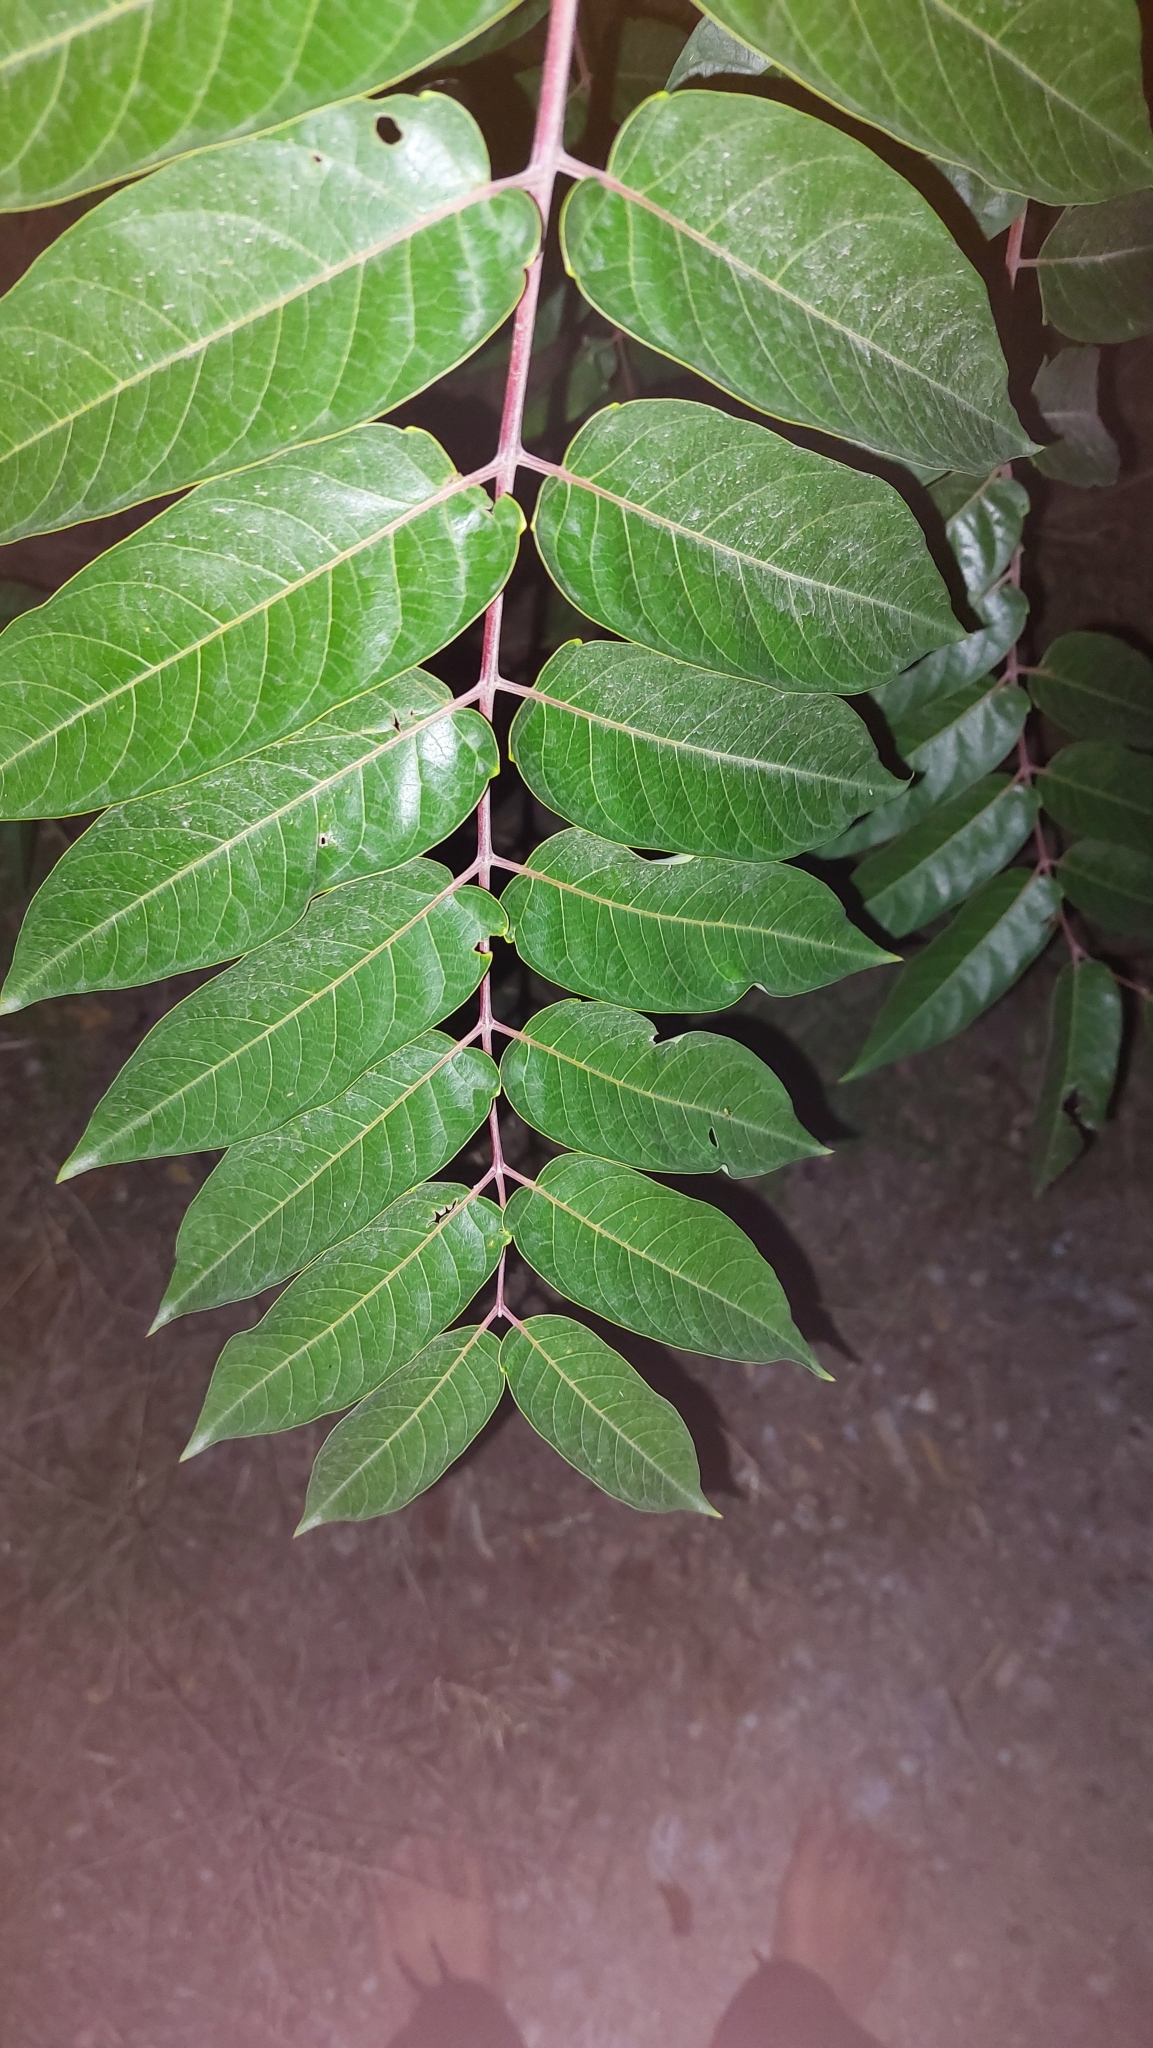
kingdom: Plantae
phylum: Tracheophyta
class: Magnoliopsida
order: Sapindales
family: Simaroubaceae
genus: Ailanthus
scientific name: Ailanthus altissima
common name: Tree-of-heaven
